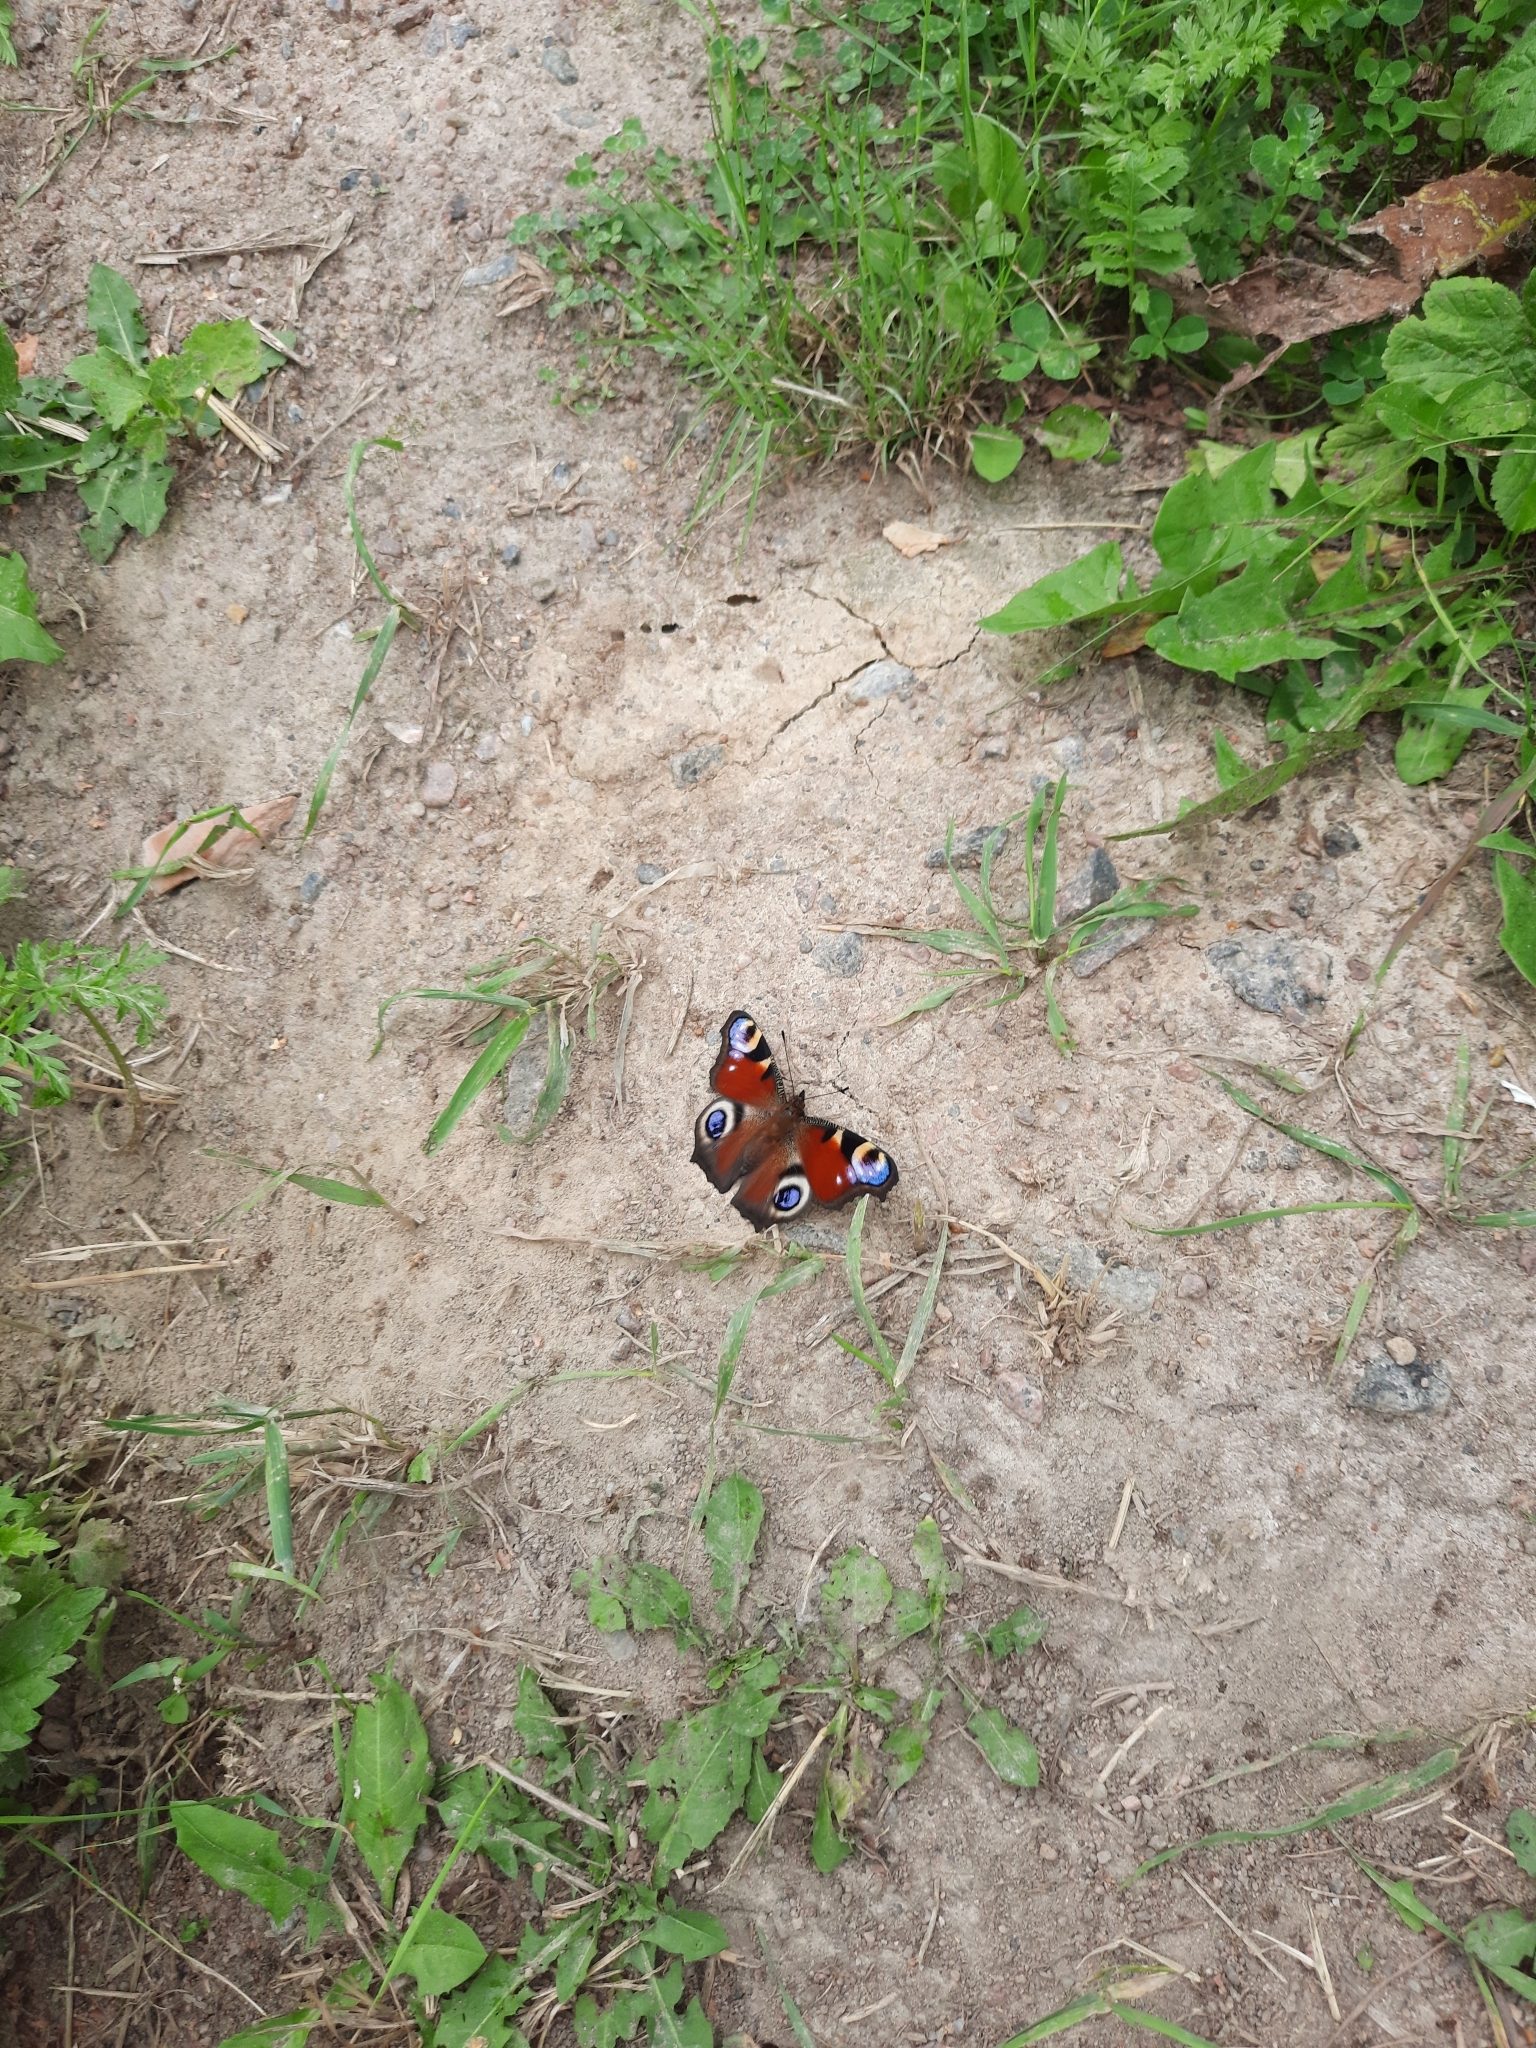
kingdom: Animalia
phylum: Arthropoda
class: Insecta
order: Lepidoptera
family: Nymphalidae
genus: Aglais
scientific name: Aglais io
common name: Peacock
